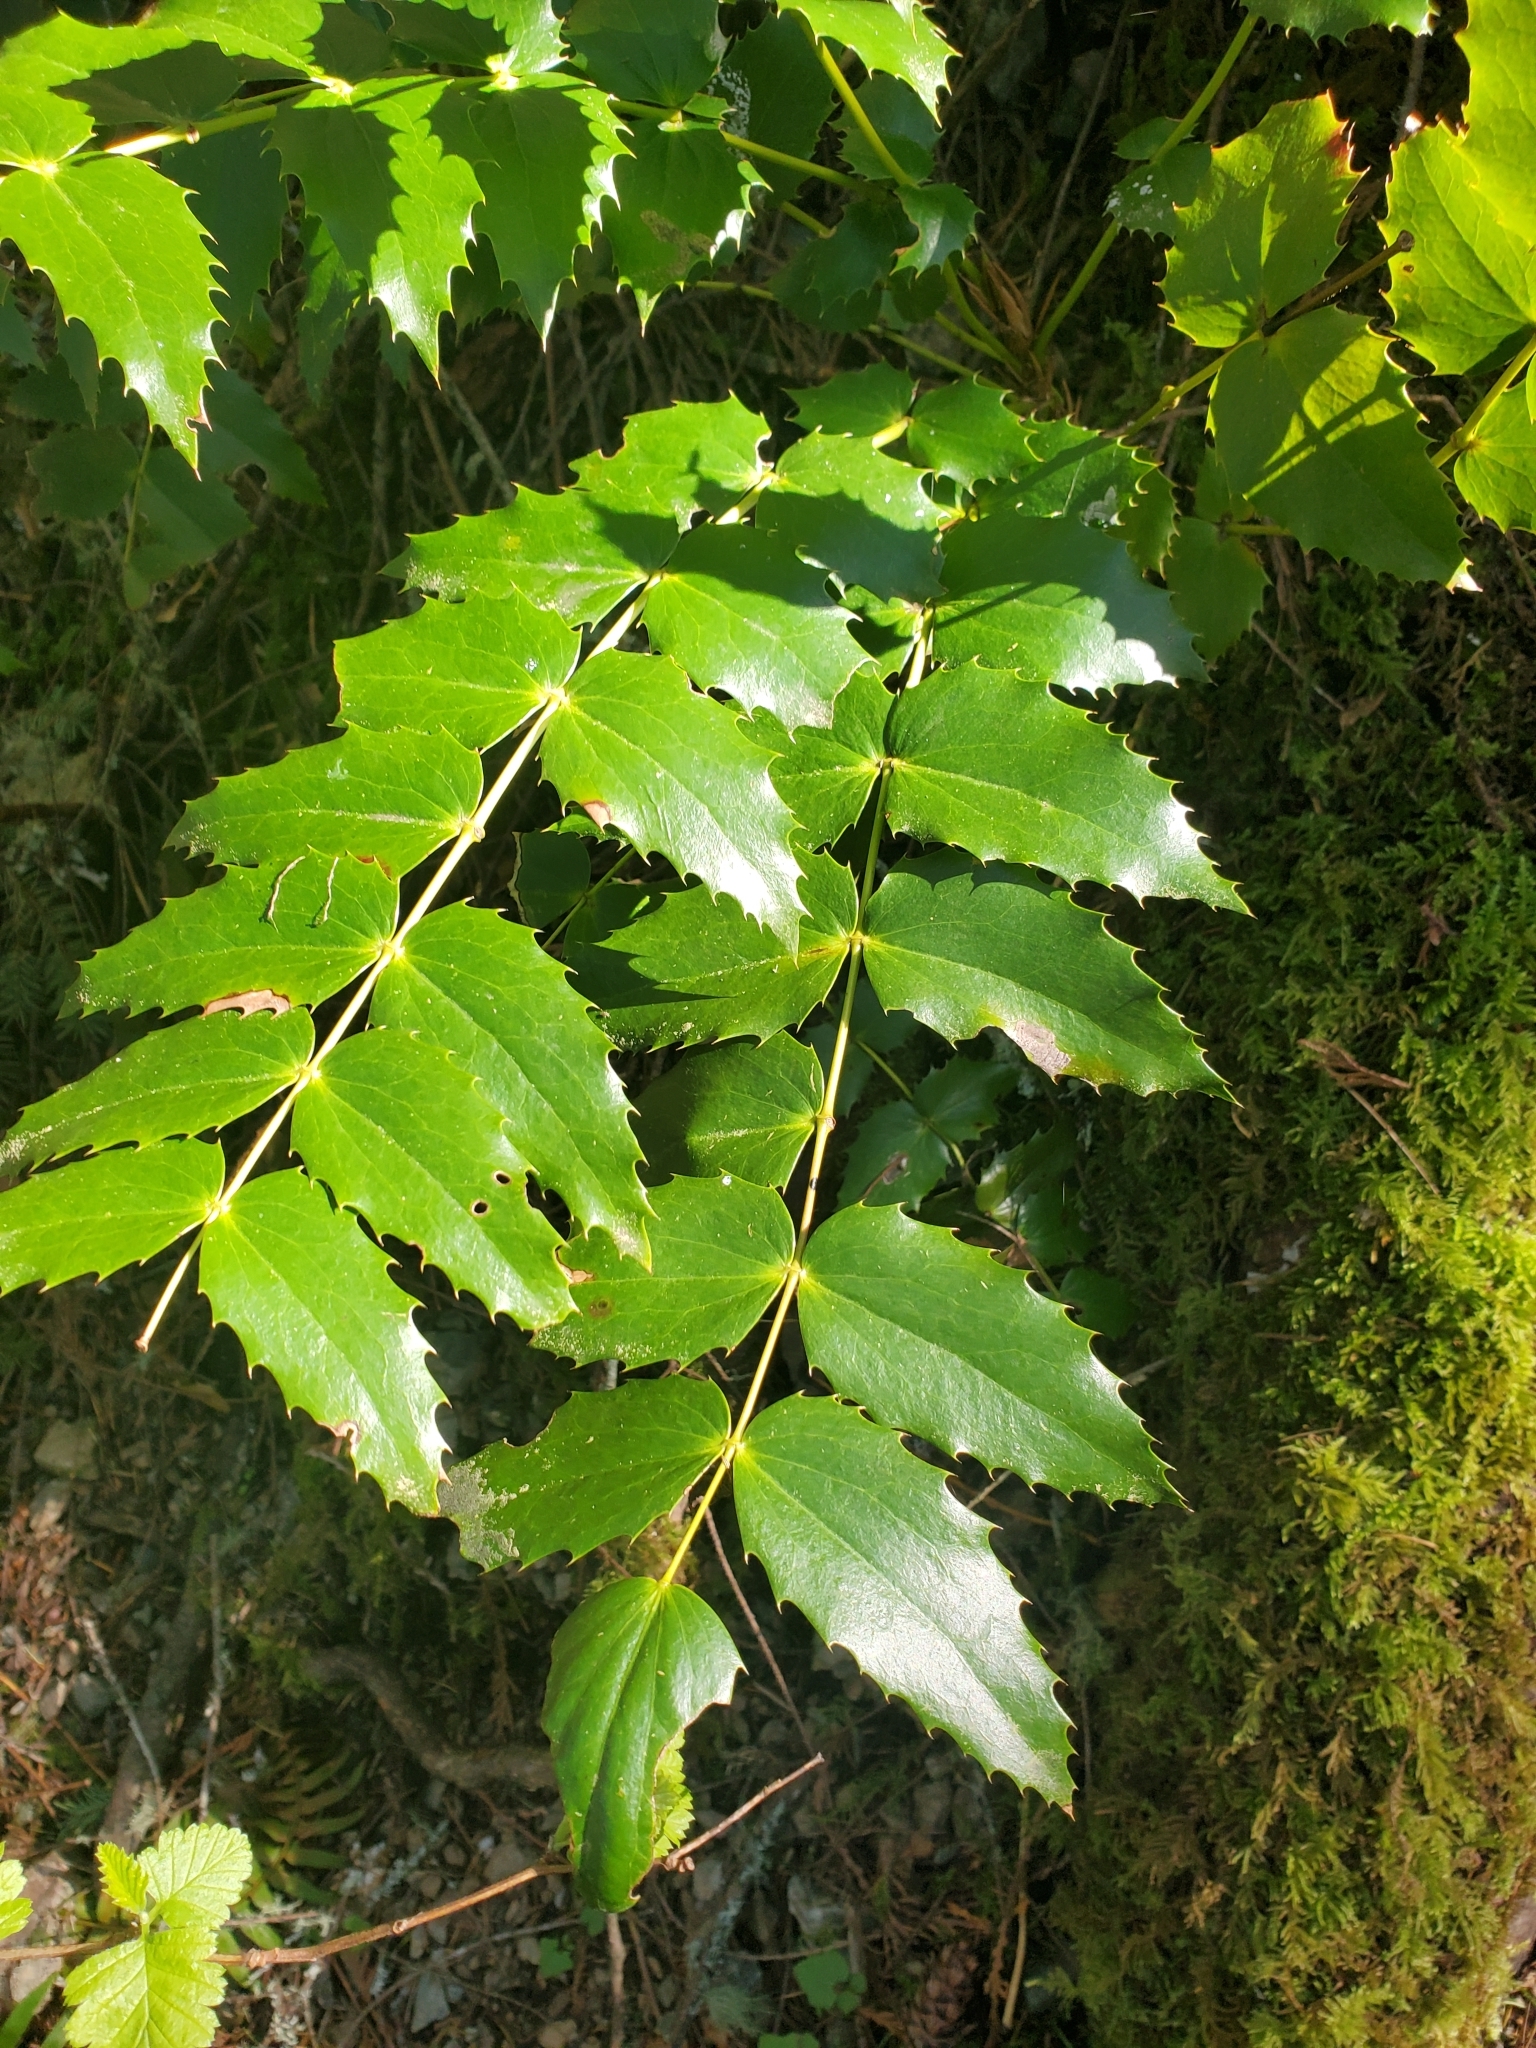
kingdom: Plantae
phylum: Tracheophyta
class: Magnoliopsida
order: Ranunculales
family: Berberidaceae
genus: Mahonia
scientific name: Mahonia nervosa
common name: Cascade oregon-grape
